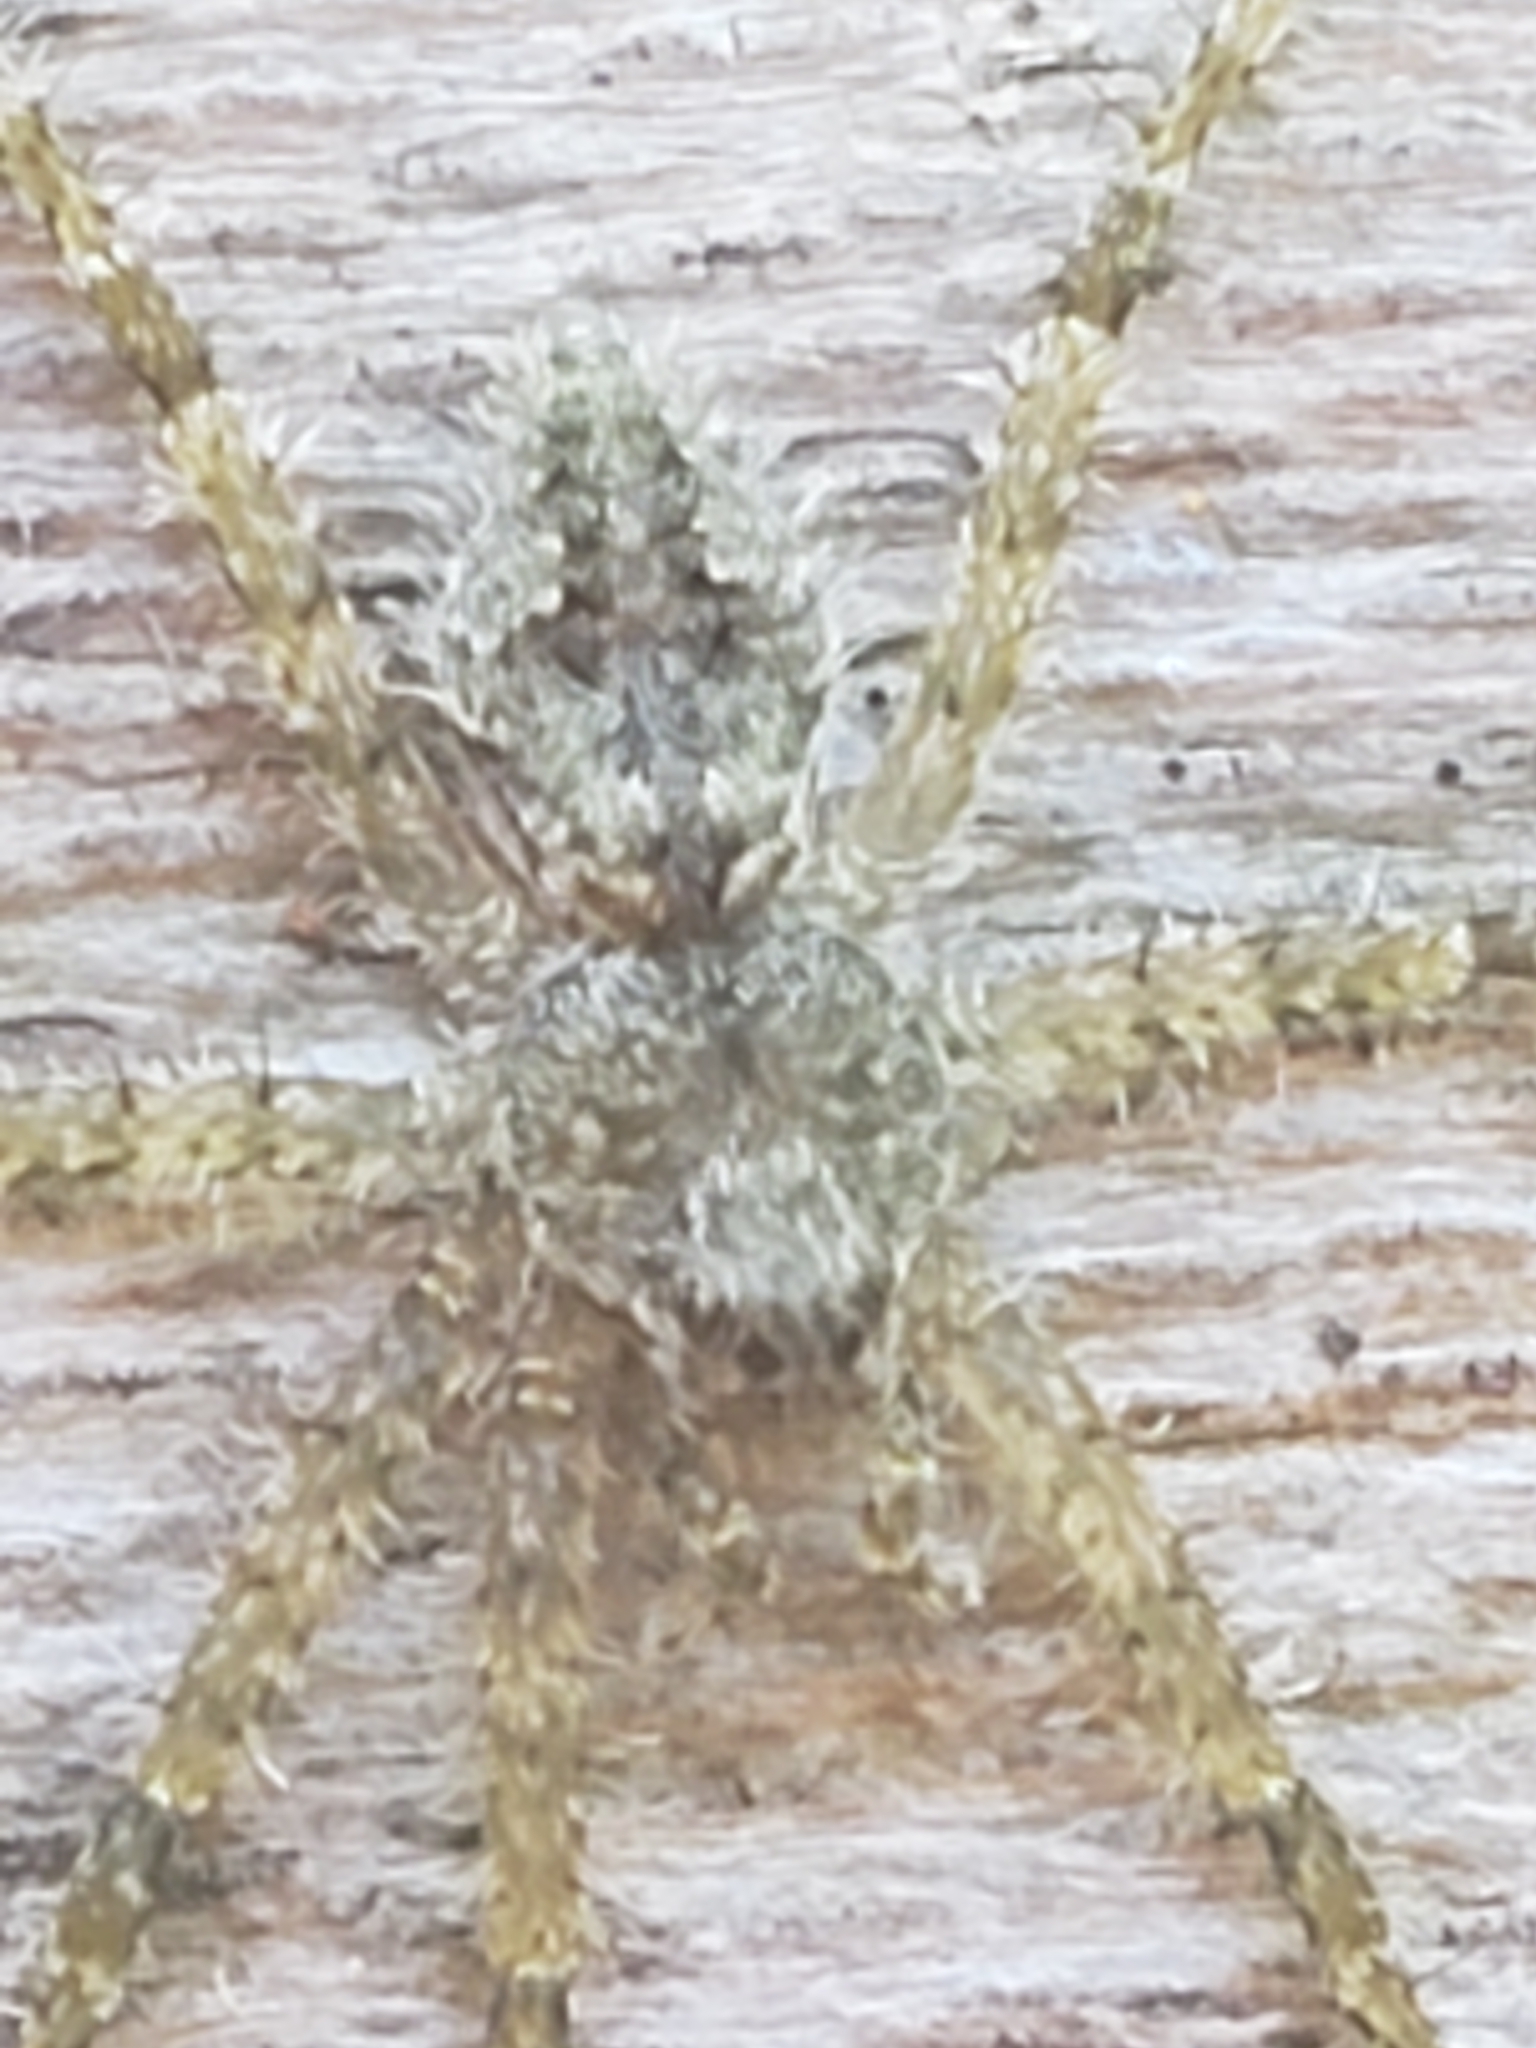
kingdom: Animalia
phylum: Arthropoda
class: Arachnida
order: Araneae
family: Pisauridae
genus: Dolomedes
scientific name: Dolomedes albineus
